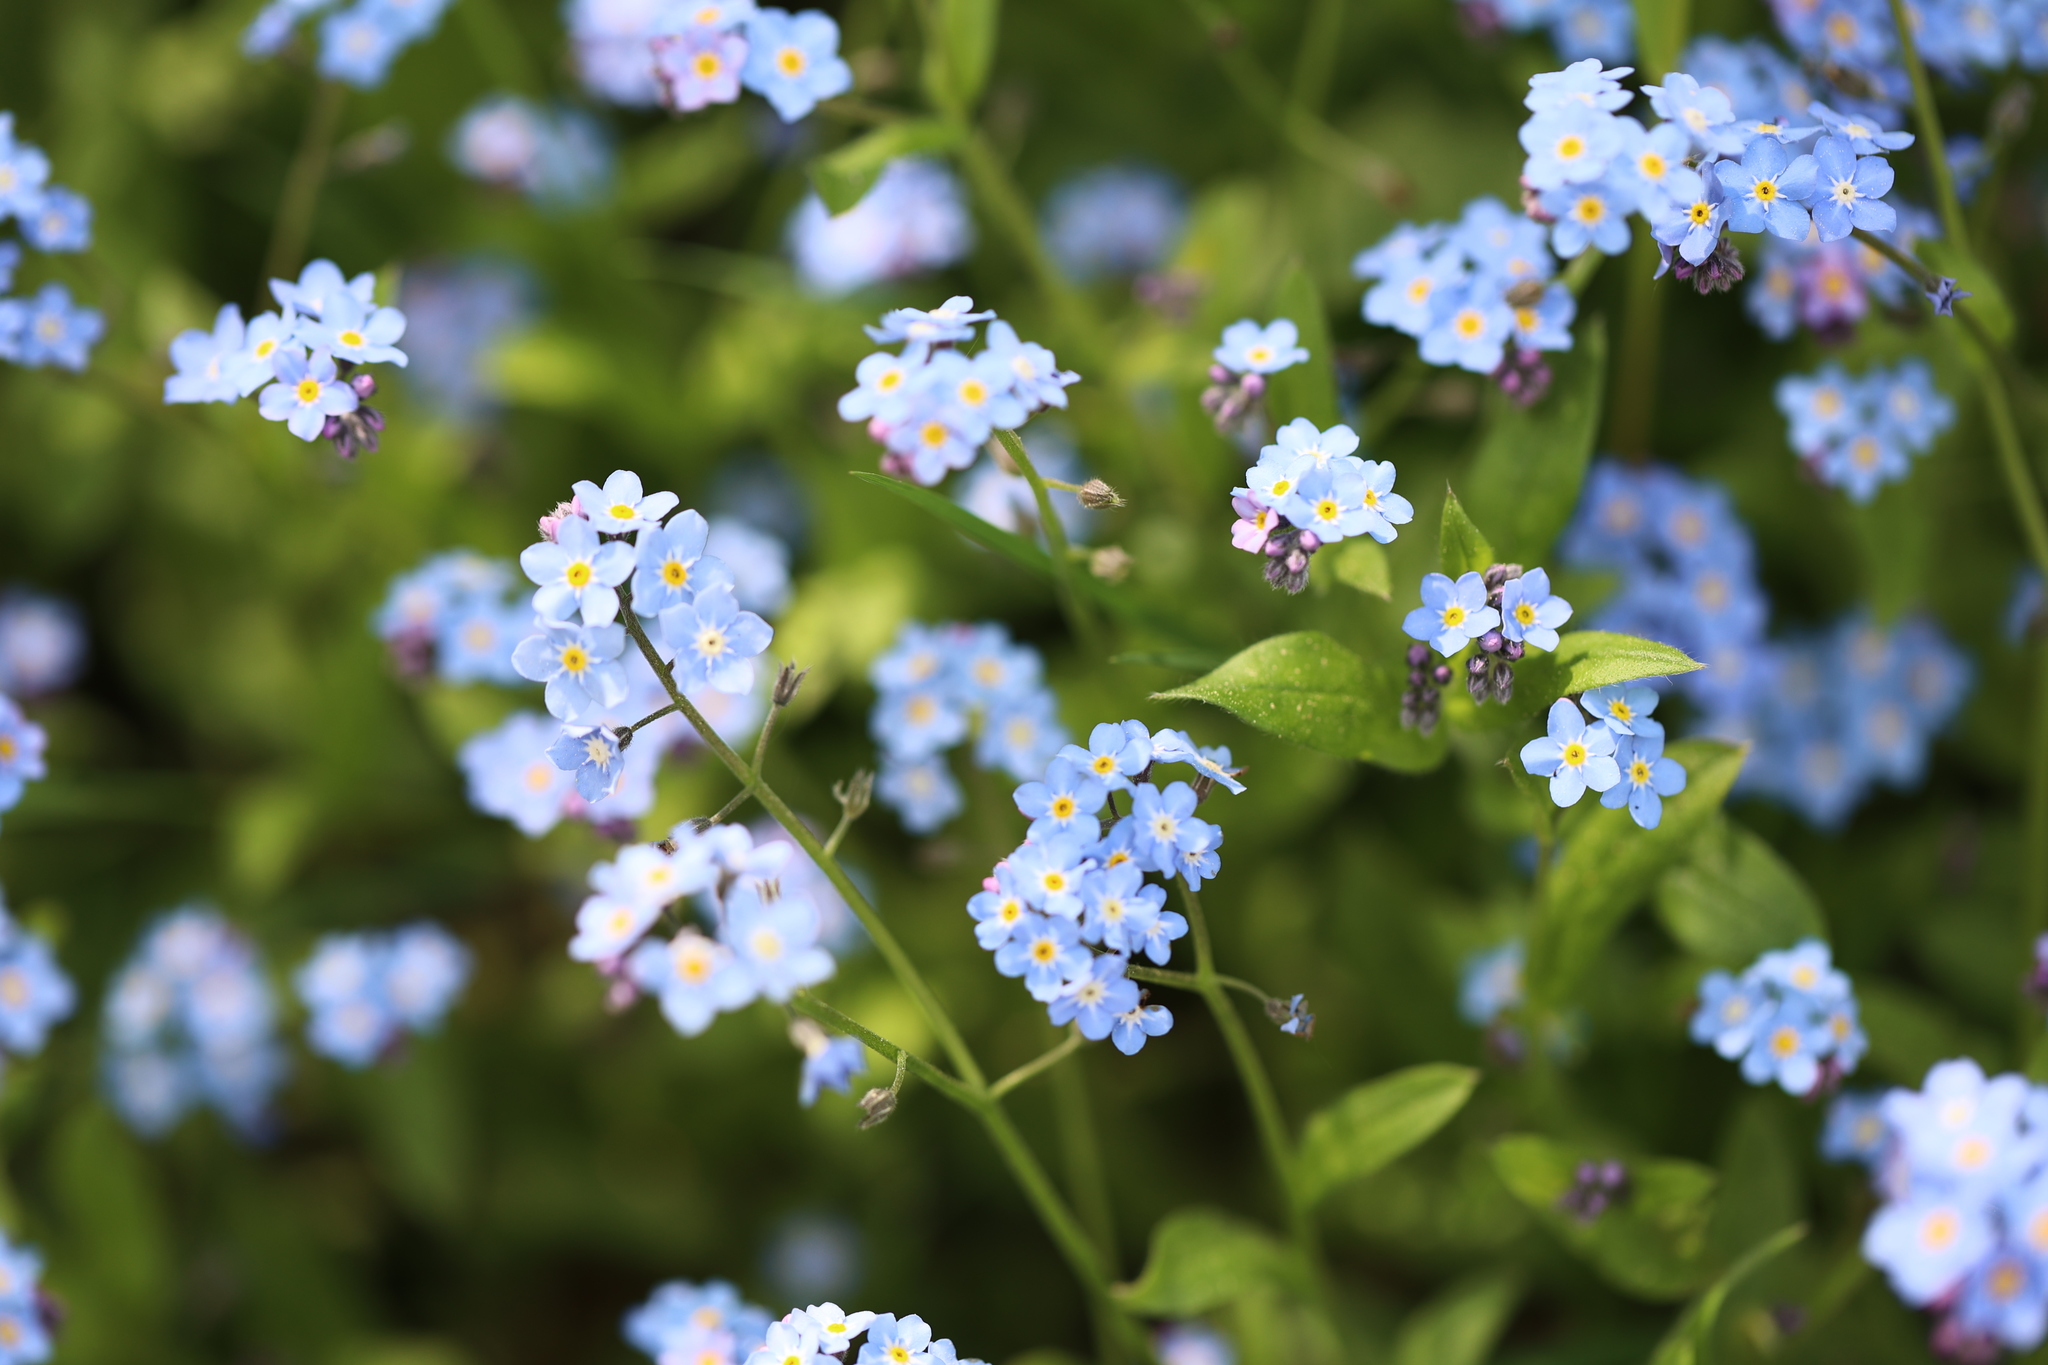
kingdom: Plantae
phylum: Tracheophyta
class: Magnoliopsida
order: Boraginales
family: Boraginaceae
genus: Myosotis
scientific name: Myosotis sylvatica
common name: Wood forget-me-not
